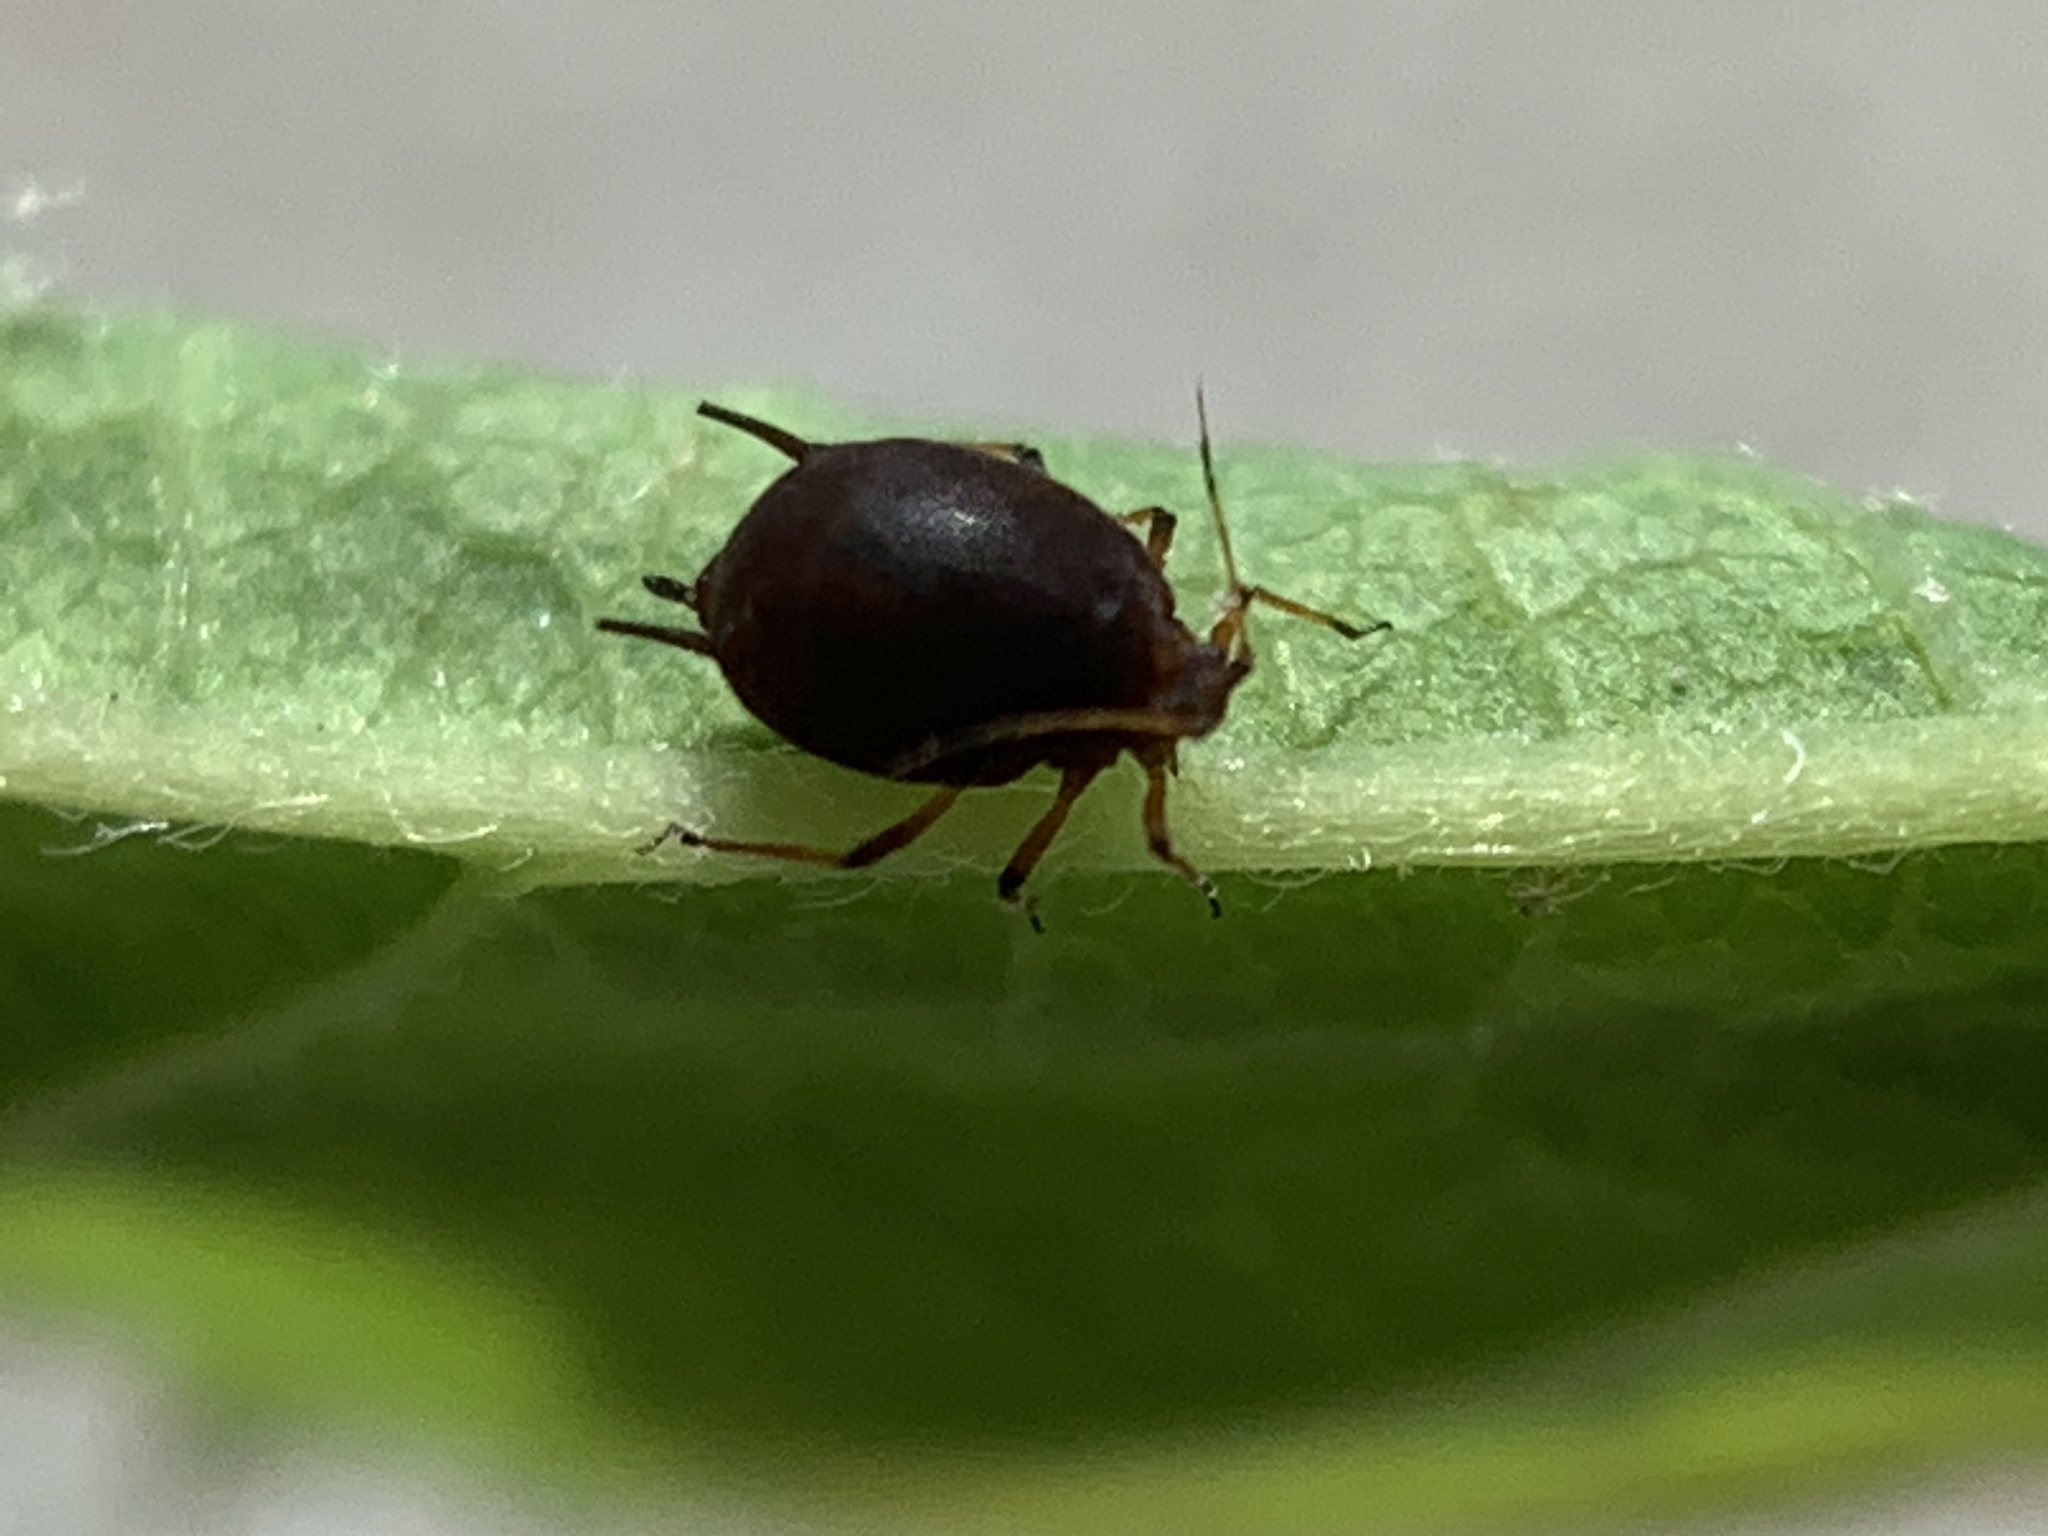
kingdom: Animalia
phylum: Arthropoda
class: Insecta
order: Hemiptera
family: Aphididae
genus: Aphis
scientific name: Aphis craccivora
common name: Cowpea aphid
